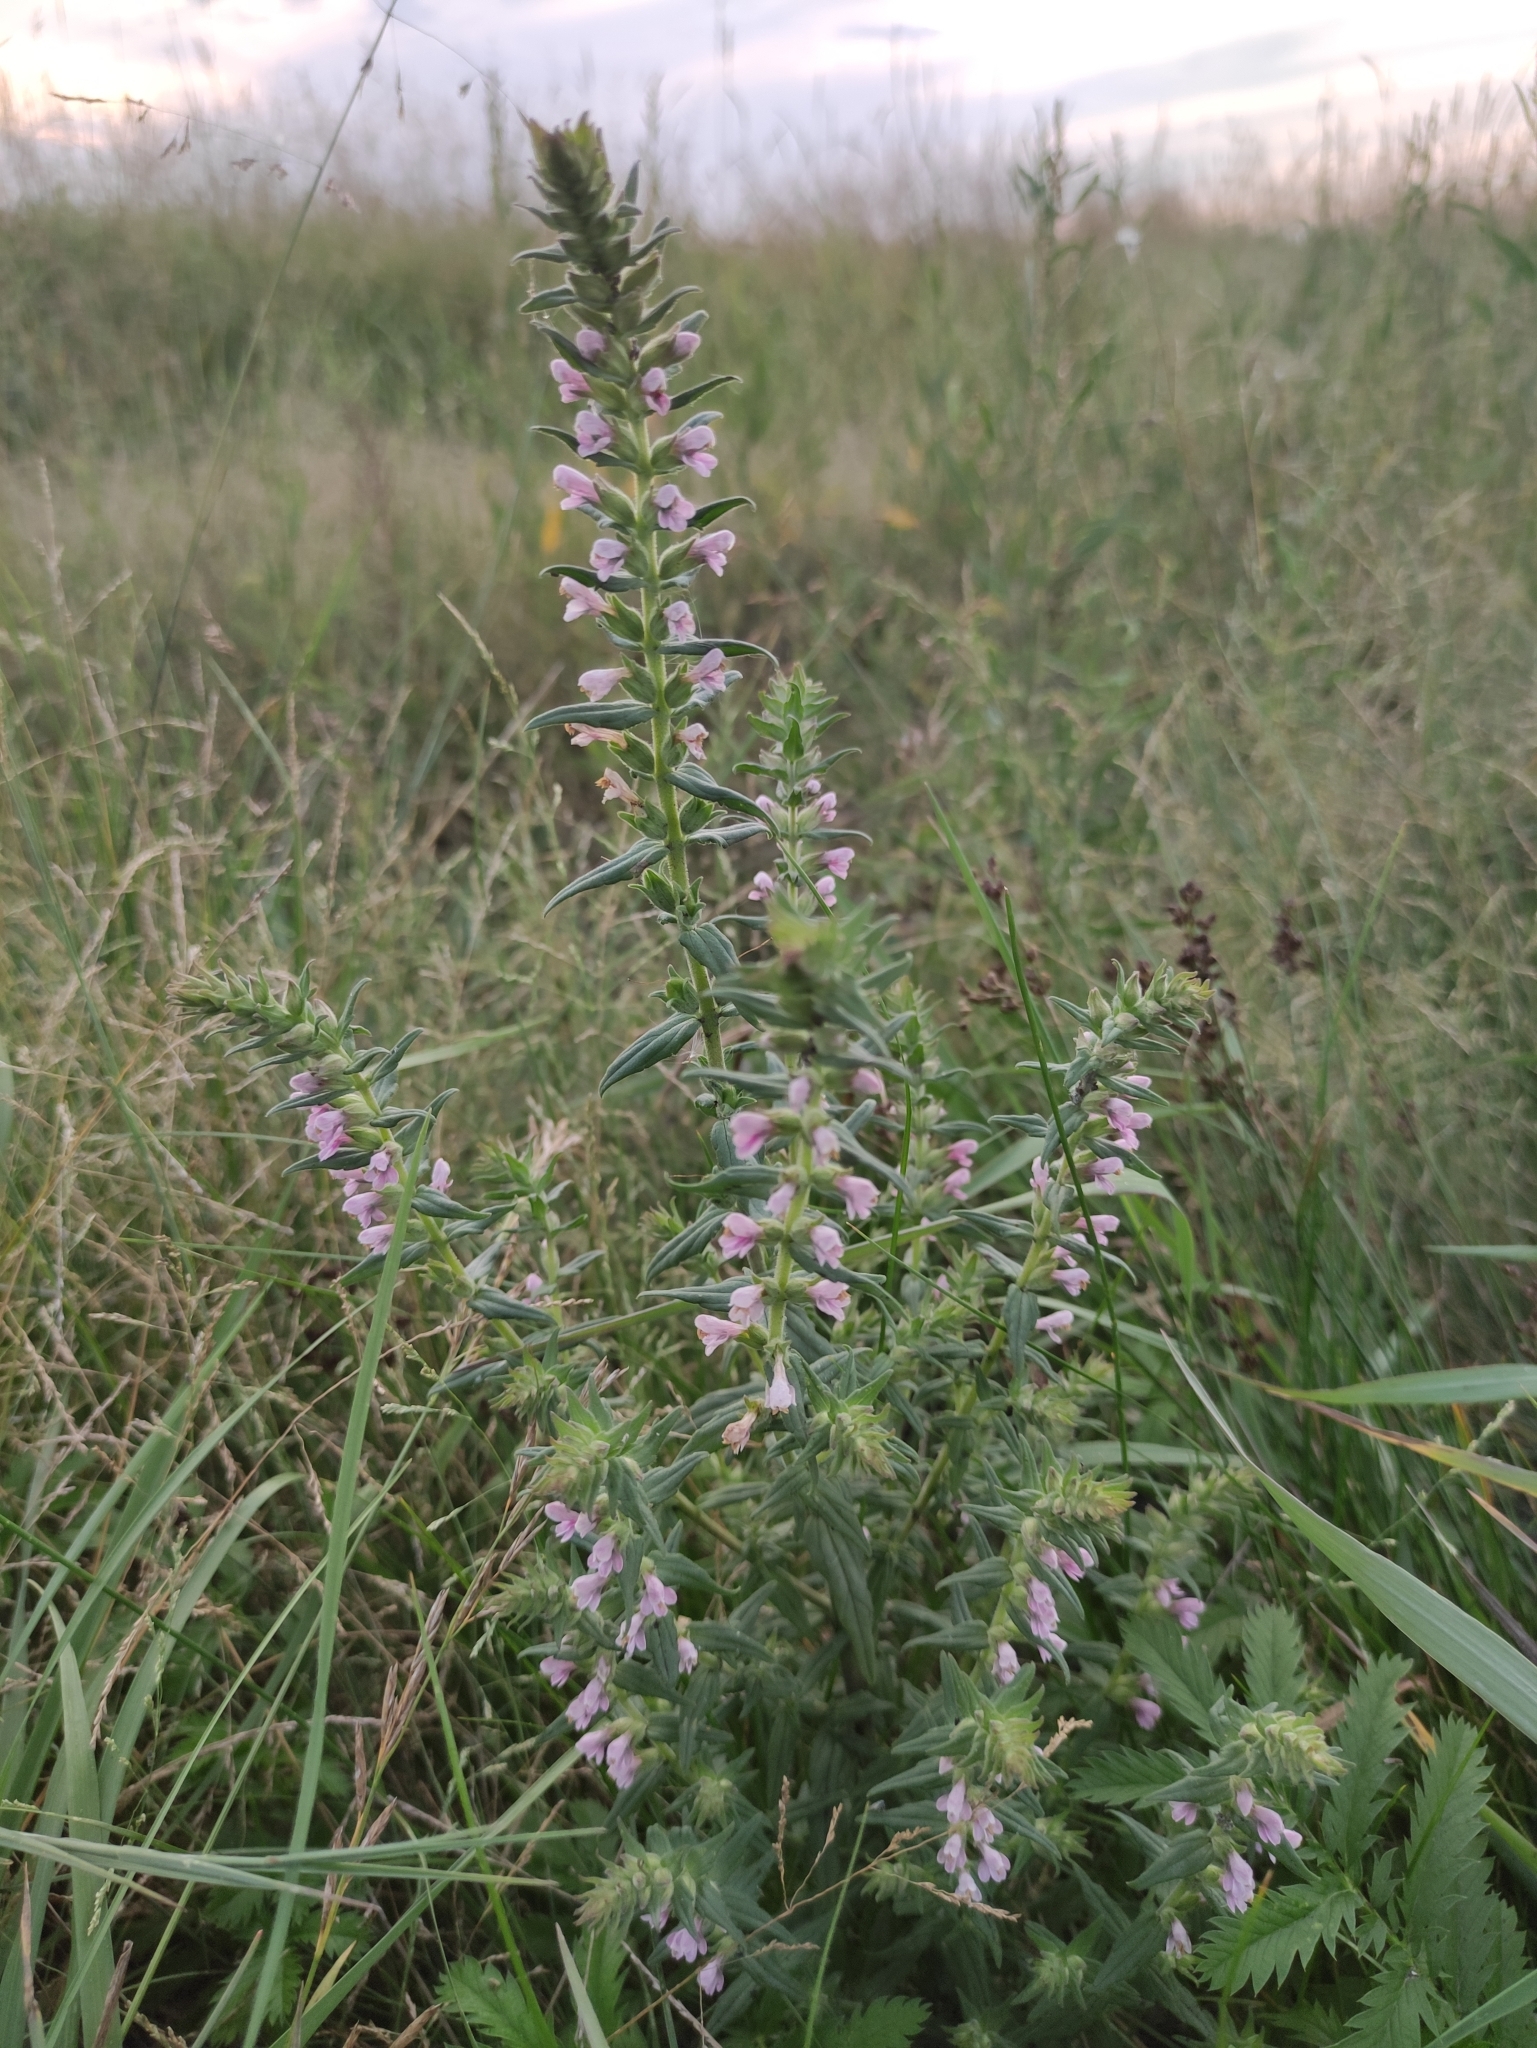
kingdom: Plantae
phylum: Tracheophyta
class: Magnoliopsida
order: Lamiales
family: Orobanchaceae
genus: Odontites
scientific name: Odontites vulgaris
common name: Broomrape
